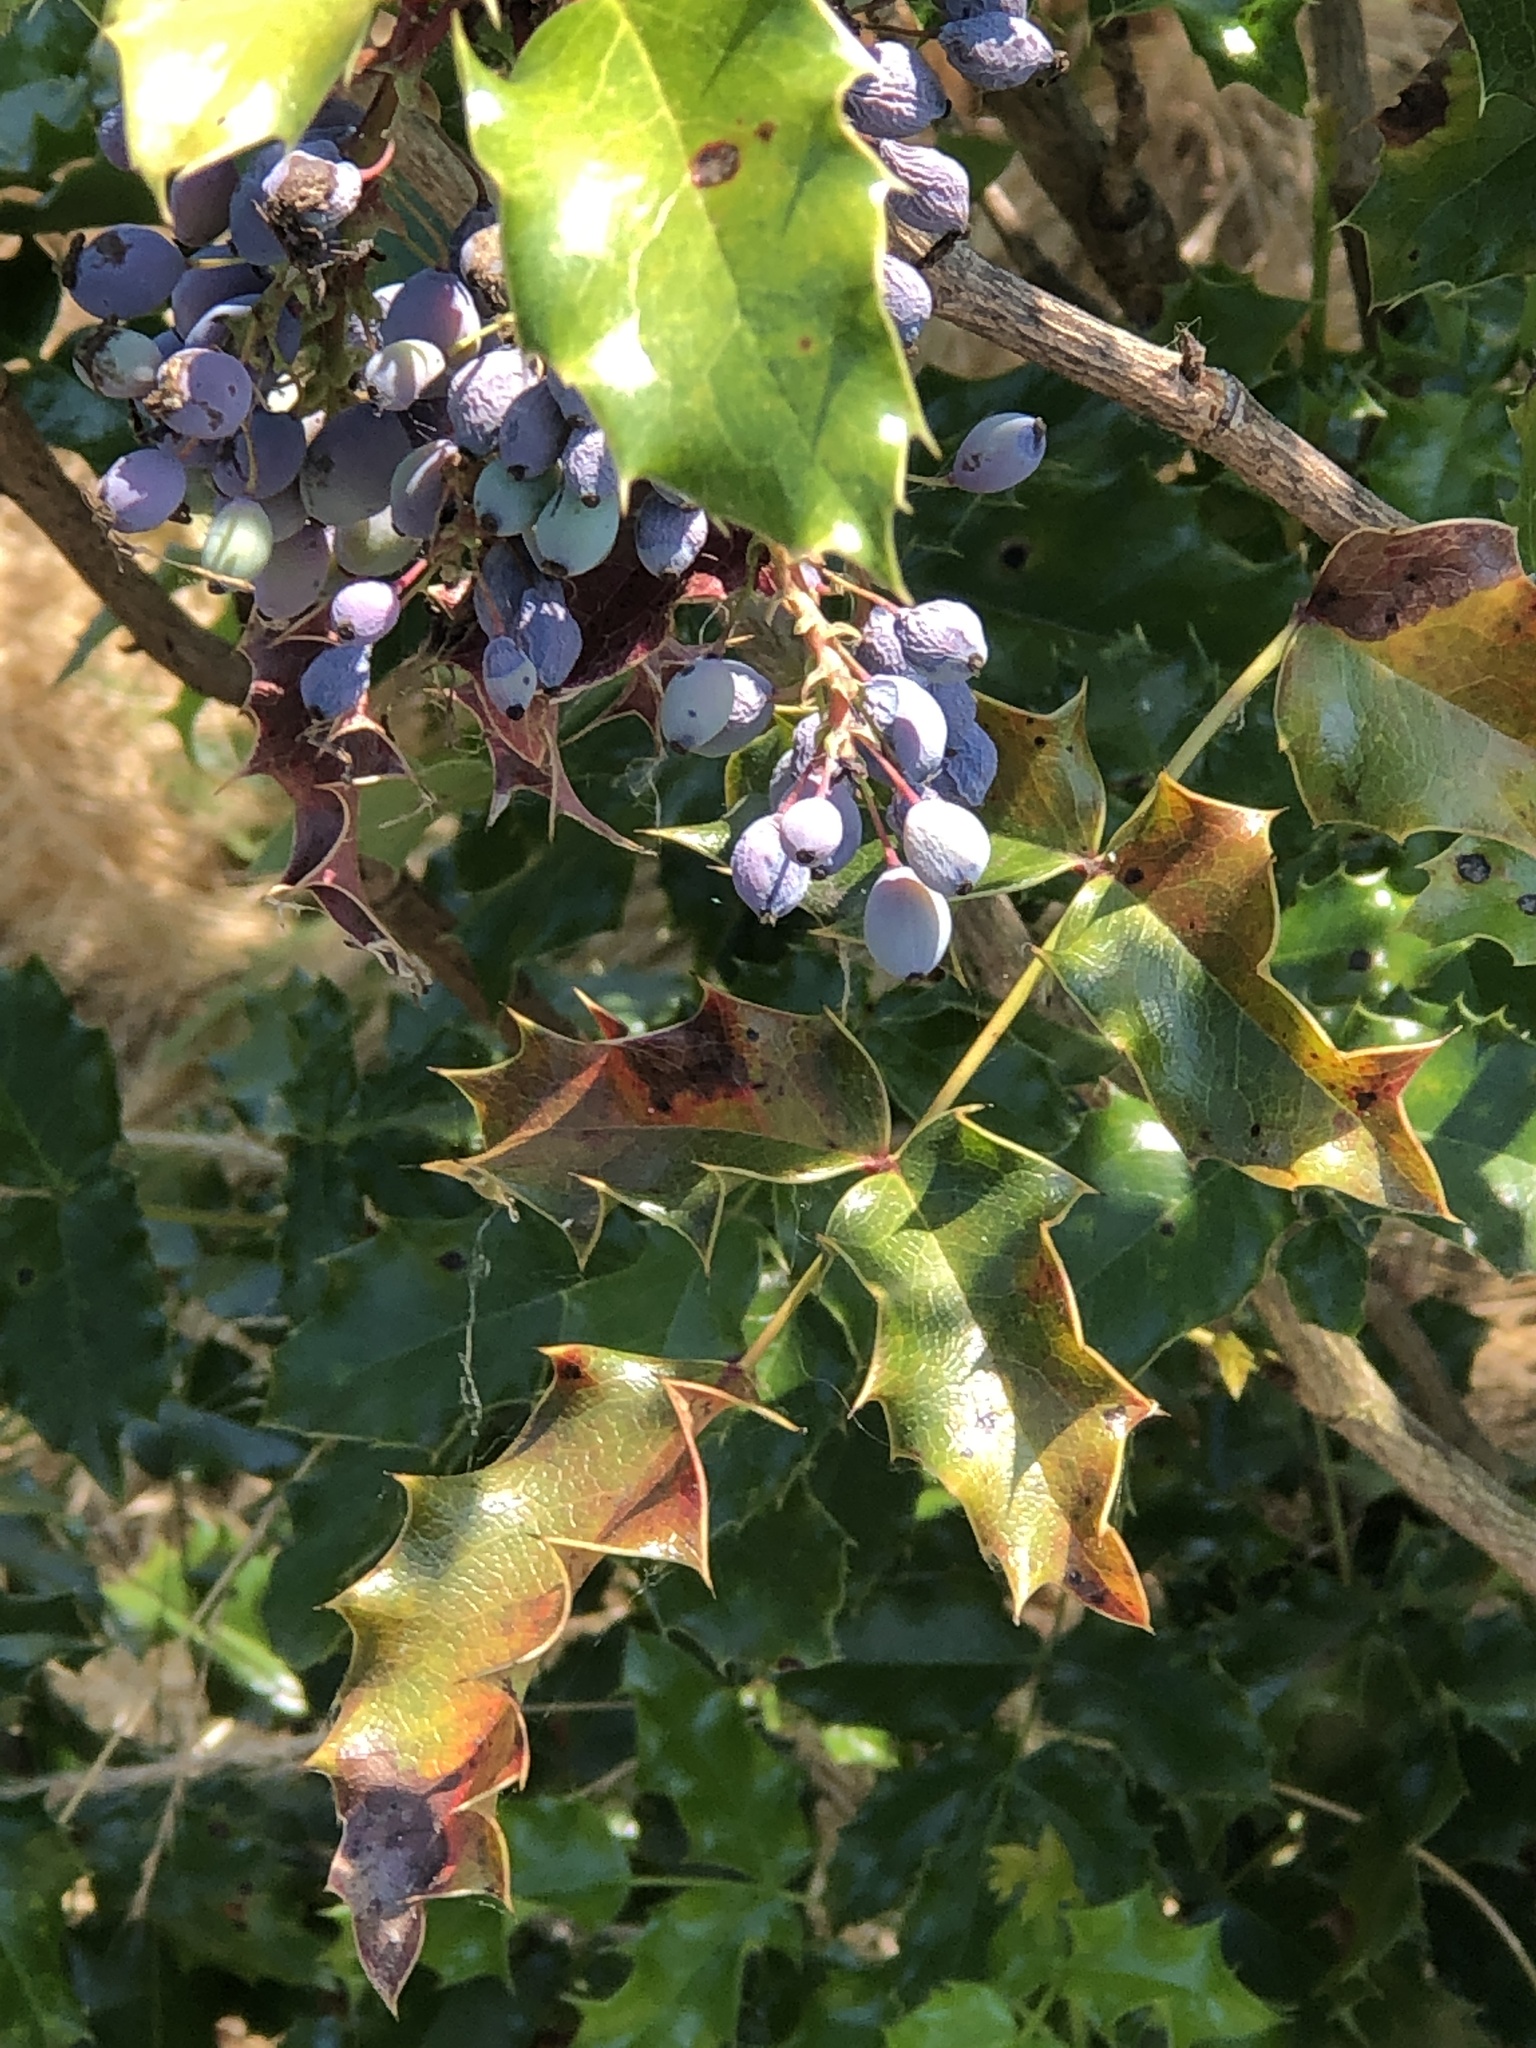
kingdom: Plantae
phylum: Tracheophyta
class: Magnoliopsida
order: Ranunculales
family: Berberidaceae
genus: Mahonia
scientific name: Mahonia aquifolium
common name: Oregon-grape
